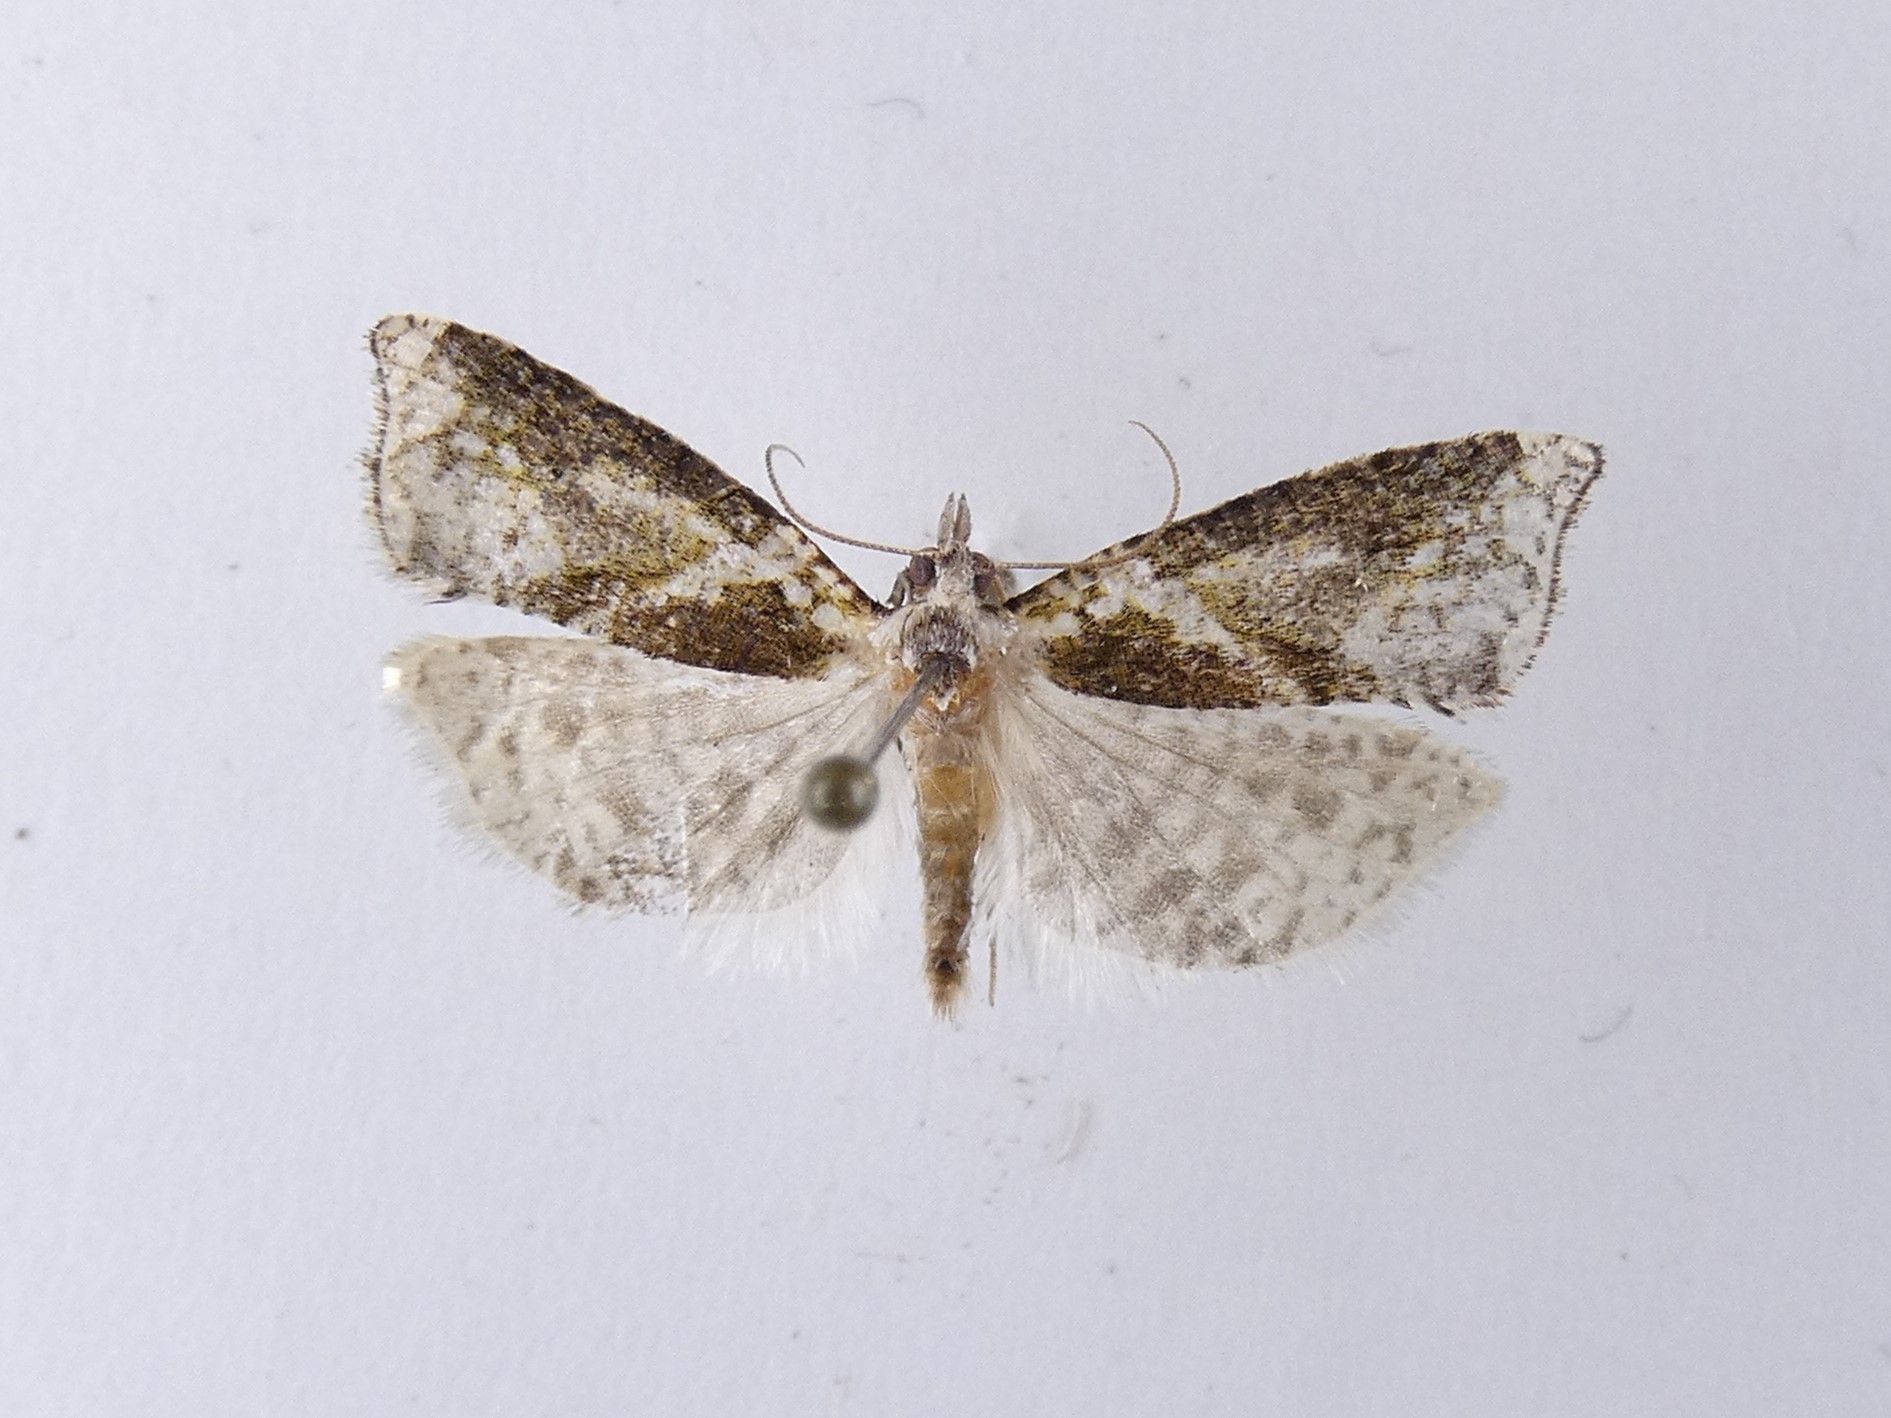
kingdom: Animalia
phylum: Arthropoda
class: Insecta
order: Lepidoptera
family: Tortricidae
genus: Pyrgotis
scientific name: Pyrgotis plagiatana
